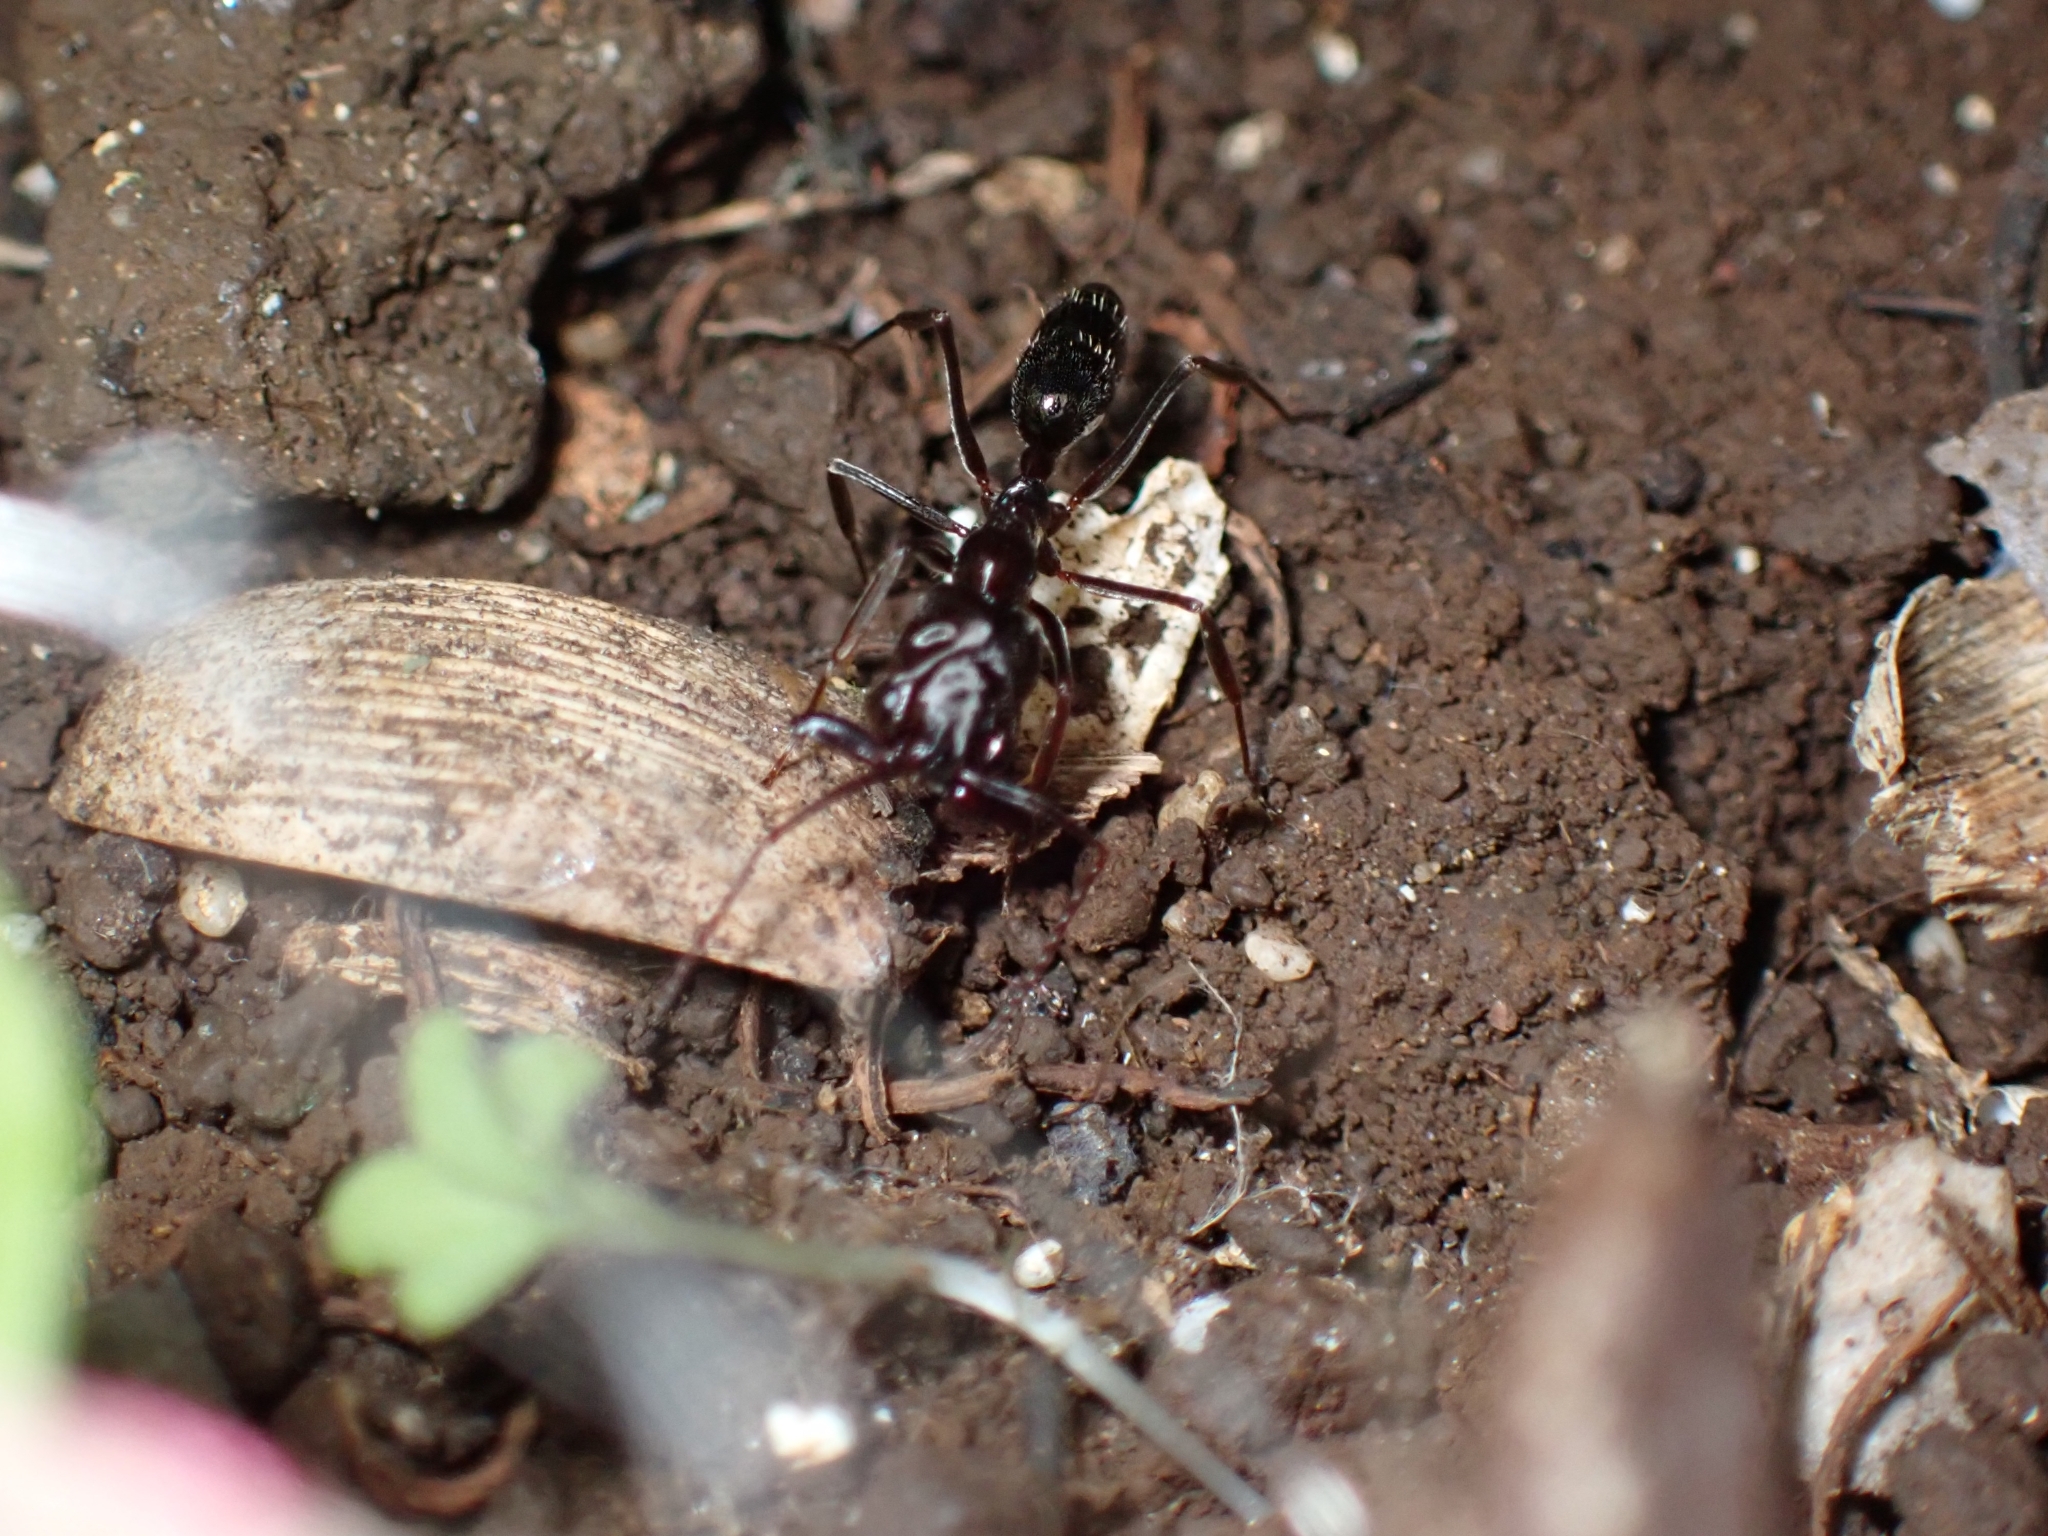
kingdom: Animalia
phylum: Arthropoda
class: Insecta
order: Hymenoptera
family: Formicidae
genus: Odontomachus
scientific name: Odontomachus simillimus
